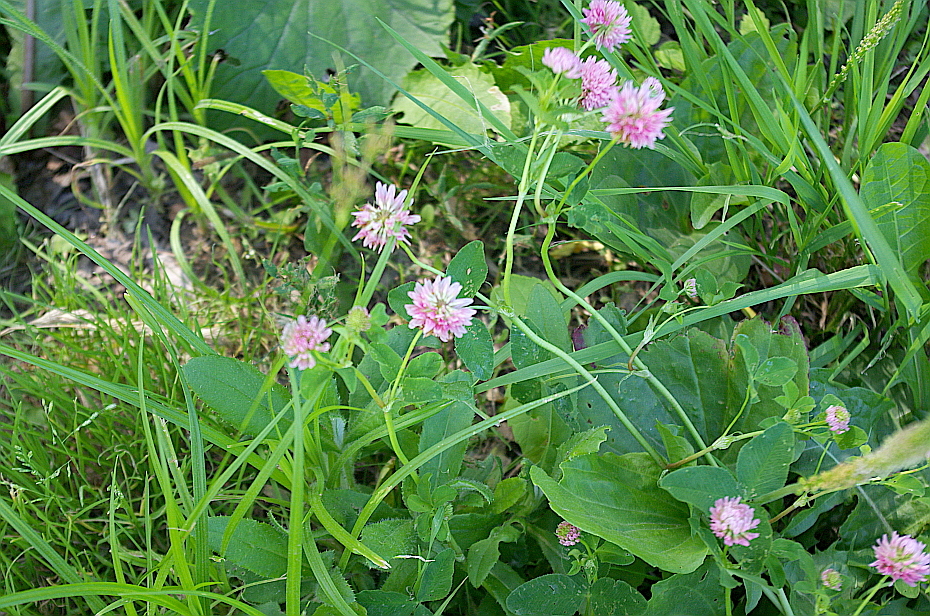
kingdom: Plantae
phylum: Tracheophyta
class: Magnoliopsida
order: Fabales
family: Fabaceae
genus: Trifolium
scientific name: Trifolium hybridum
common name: Alsike clover
